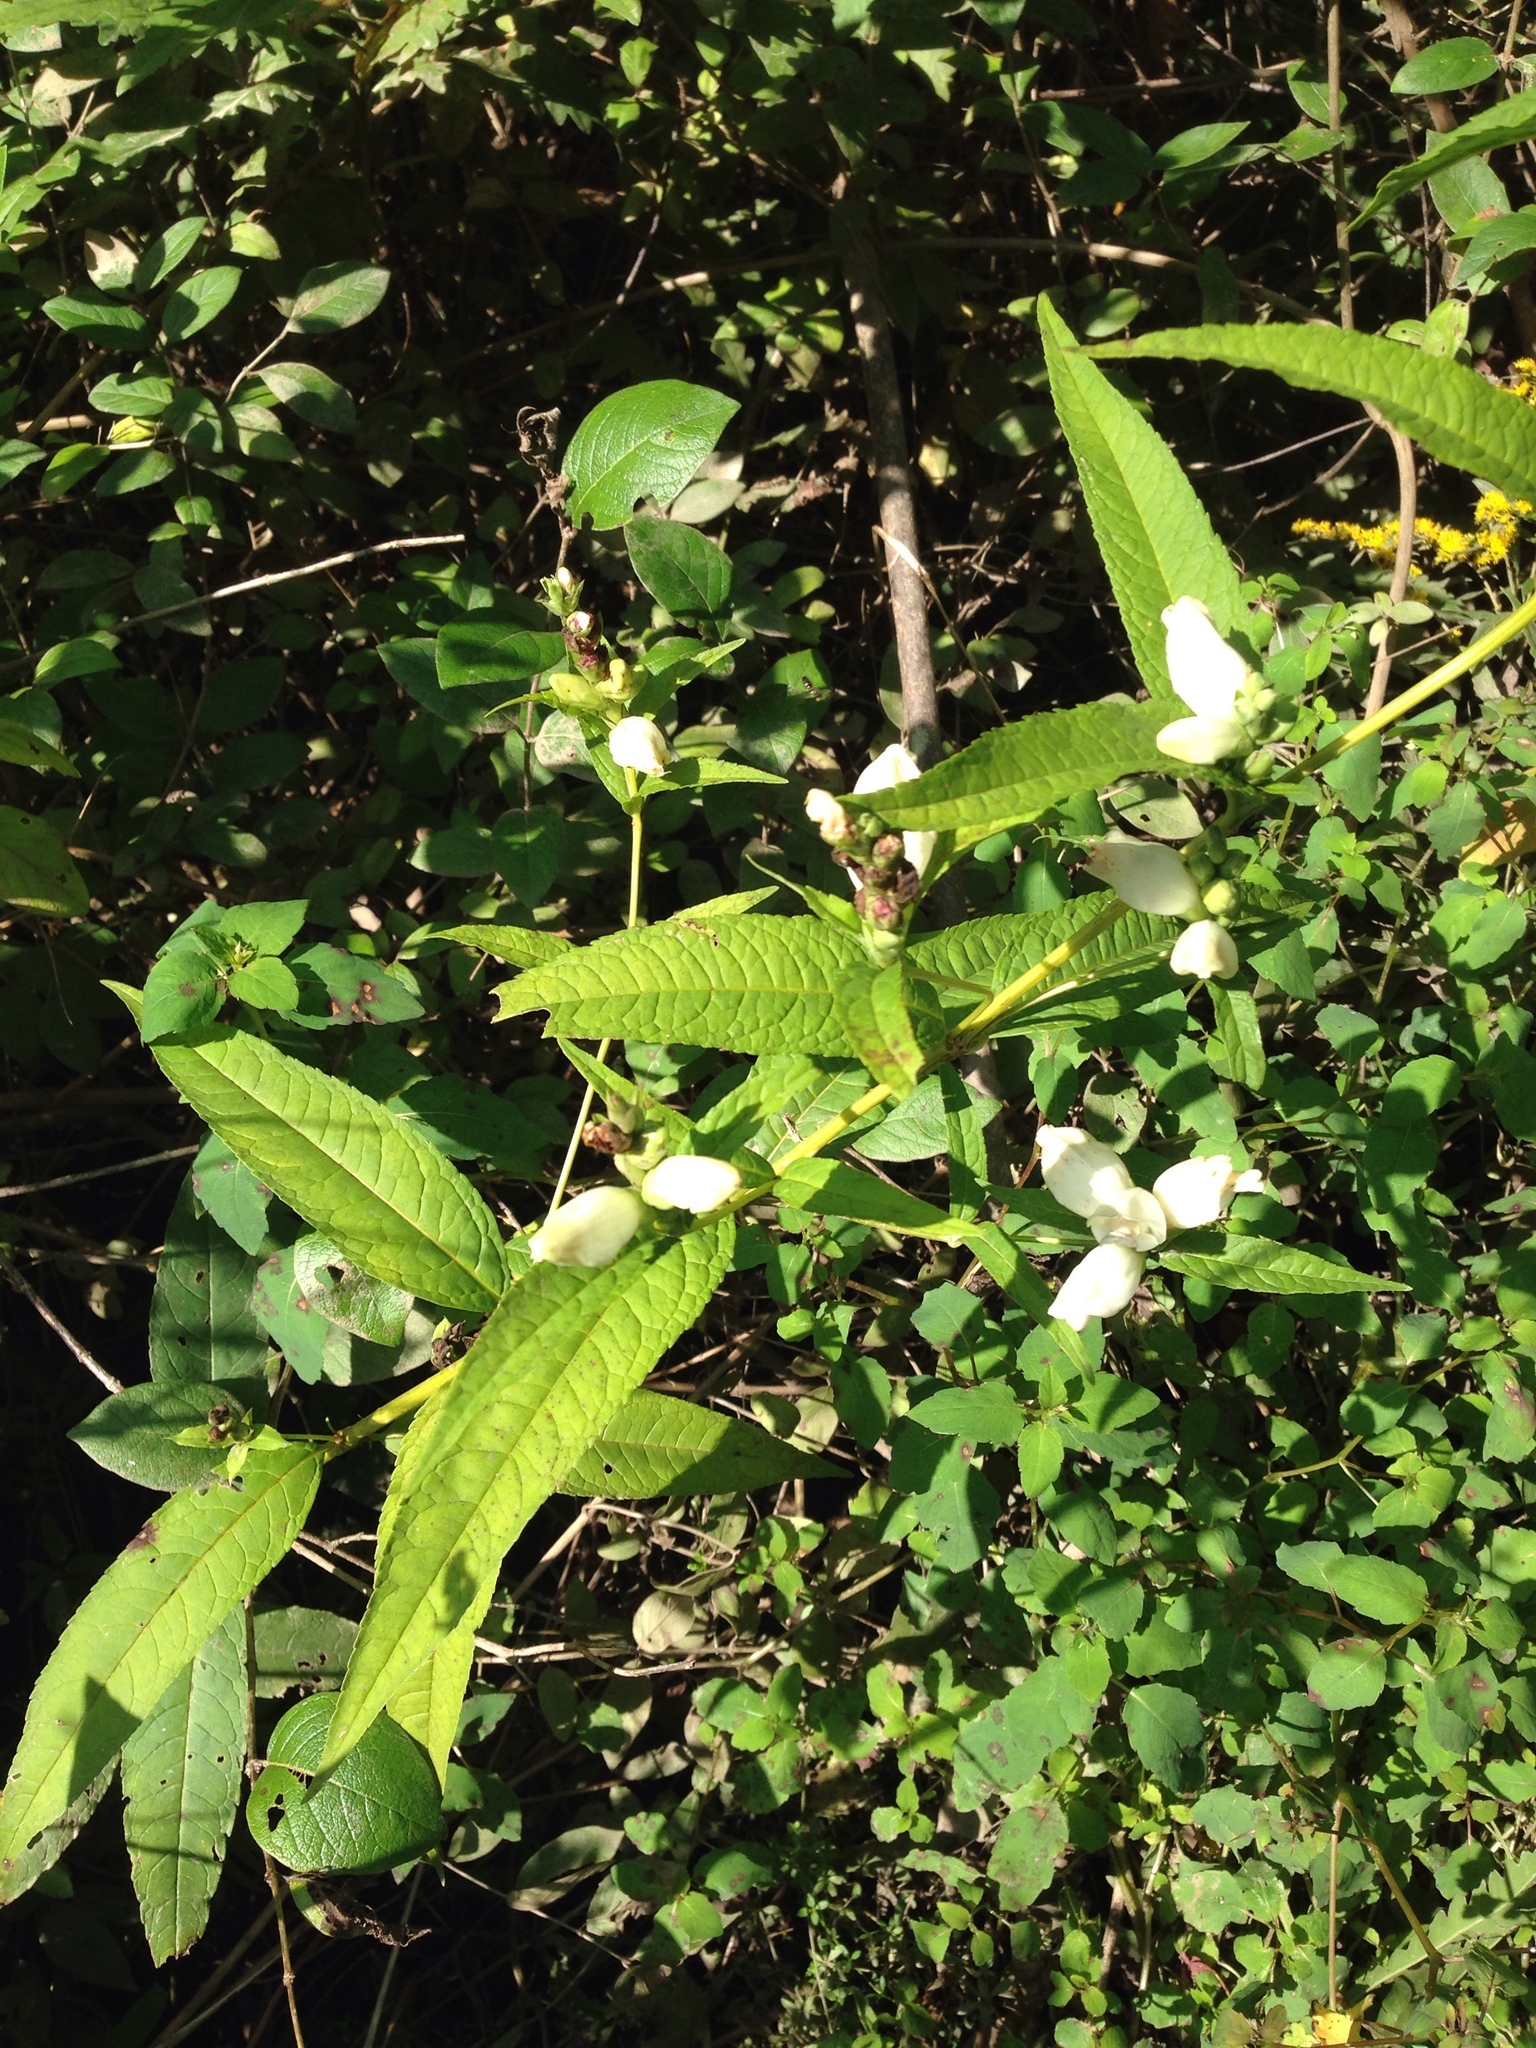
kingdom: Plantae
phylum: Tracheophyta
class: Magnoliopsida
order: Lamiales
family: Plantaginaceae
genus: Chelone
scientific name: Chelone glabra
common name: Snakehead
